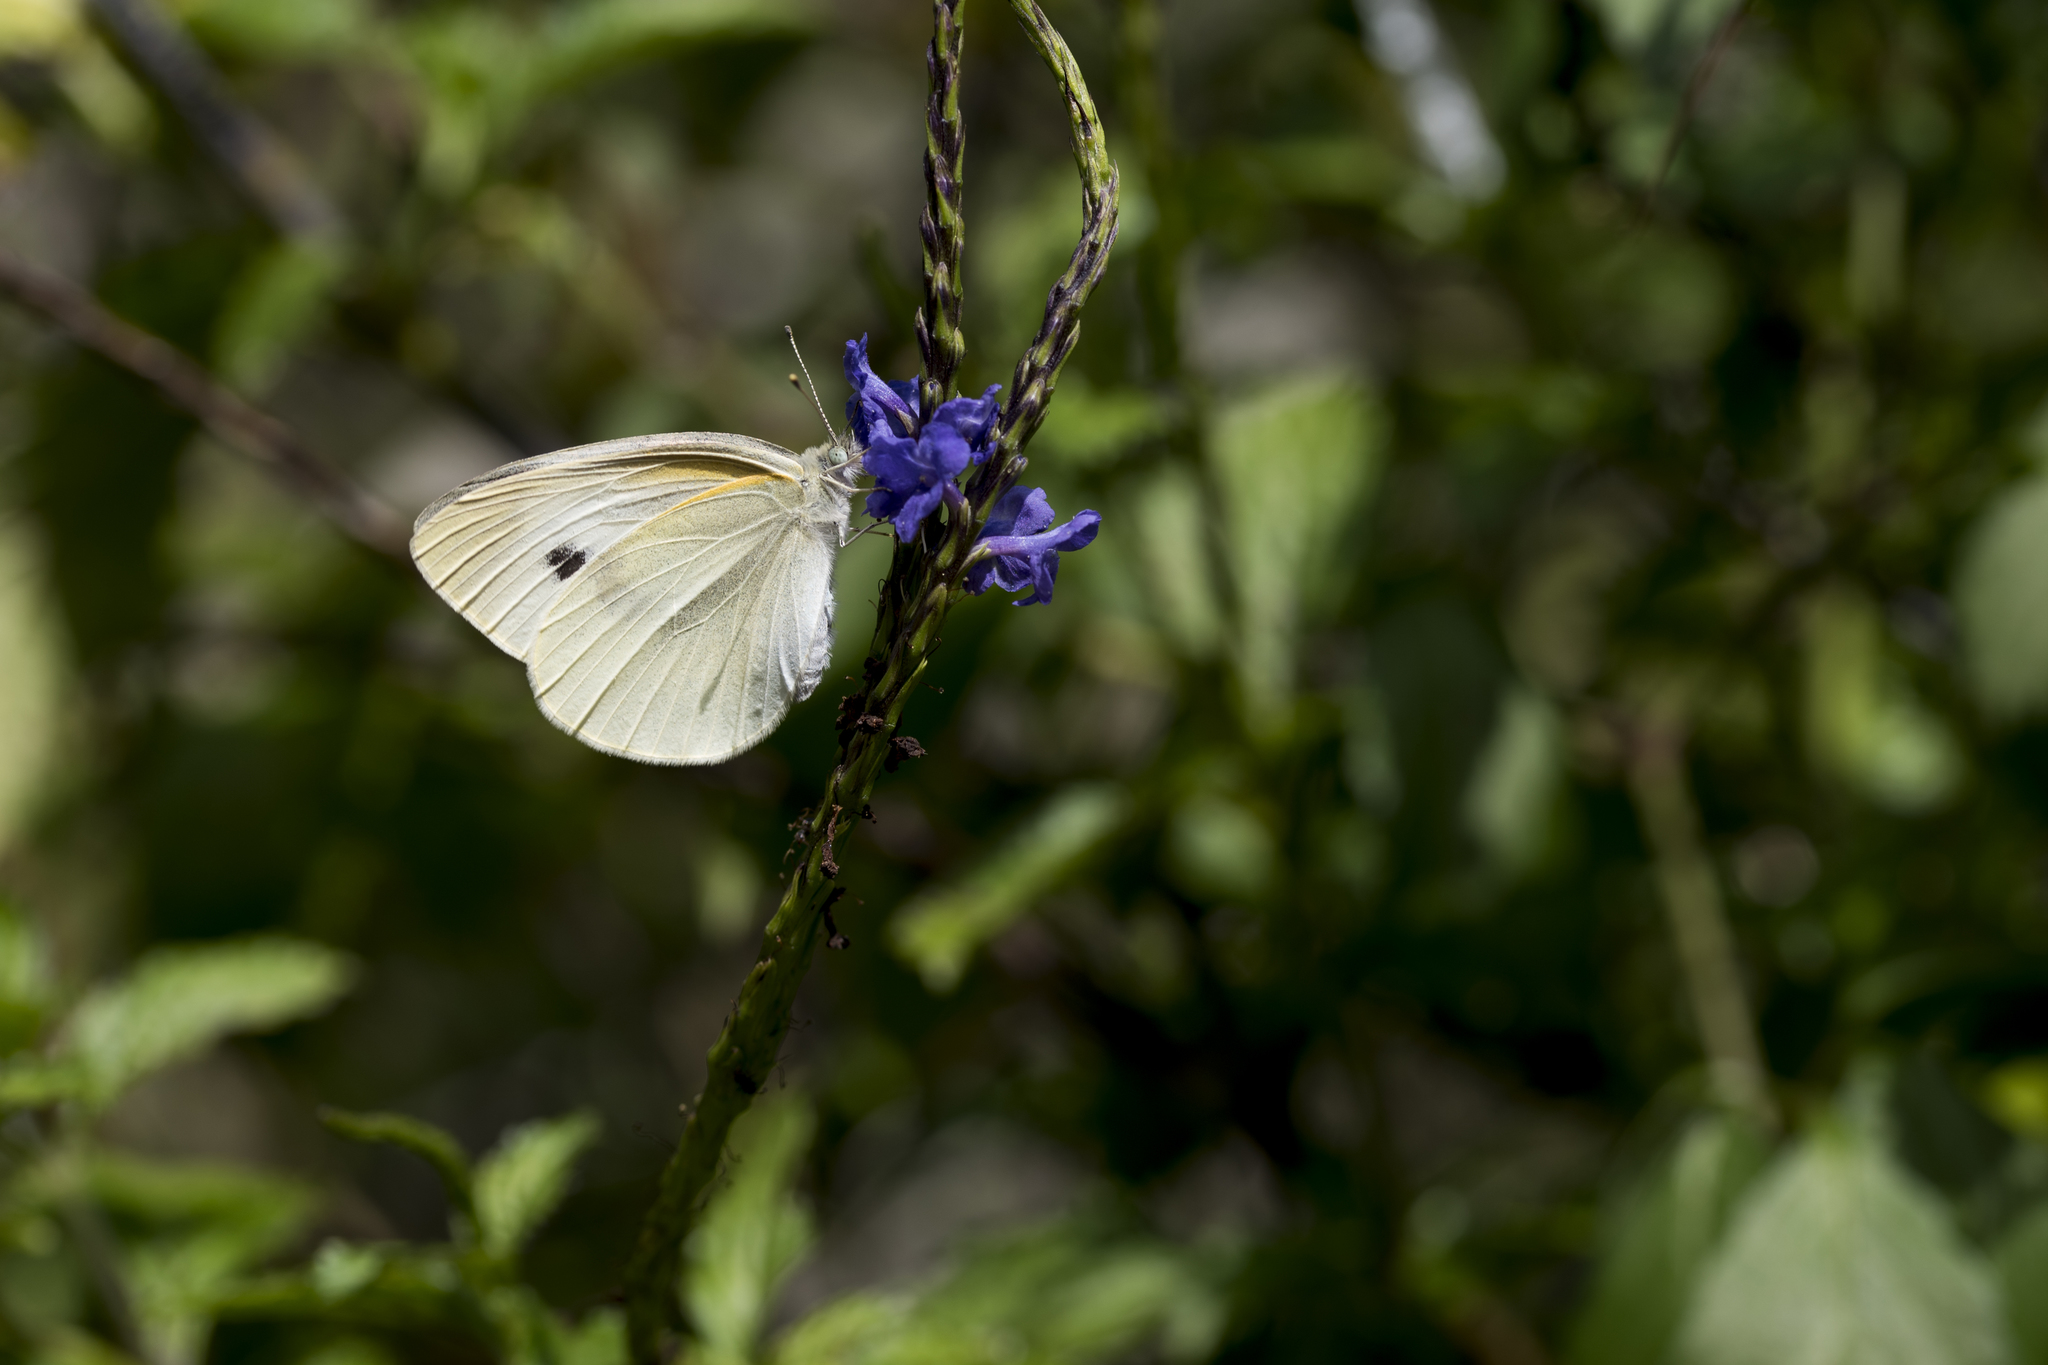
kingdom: Animalia
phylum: Arthropoda
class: Insecta
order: Lepidoptera
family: Pieridae
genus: Pieris
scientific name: Pieris rapae
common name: Small white
